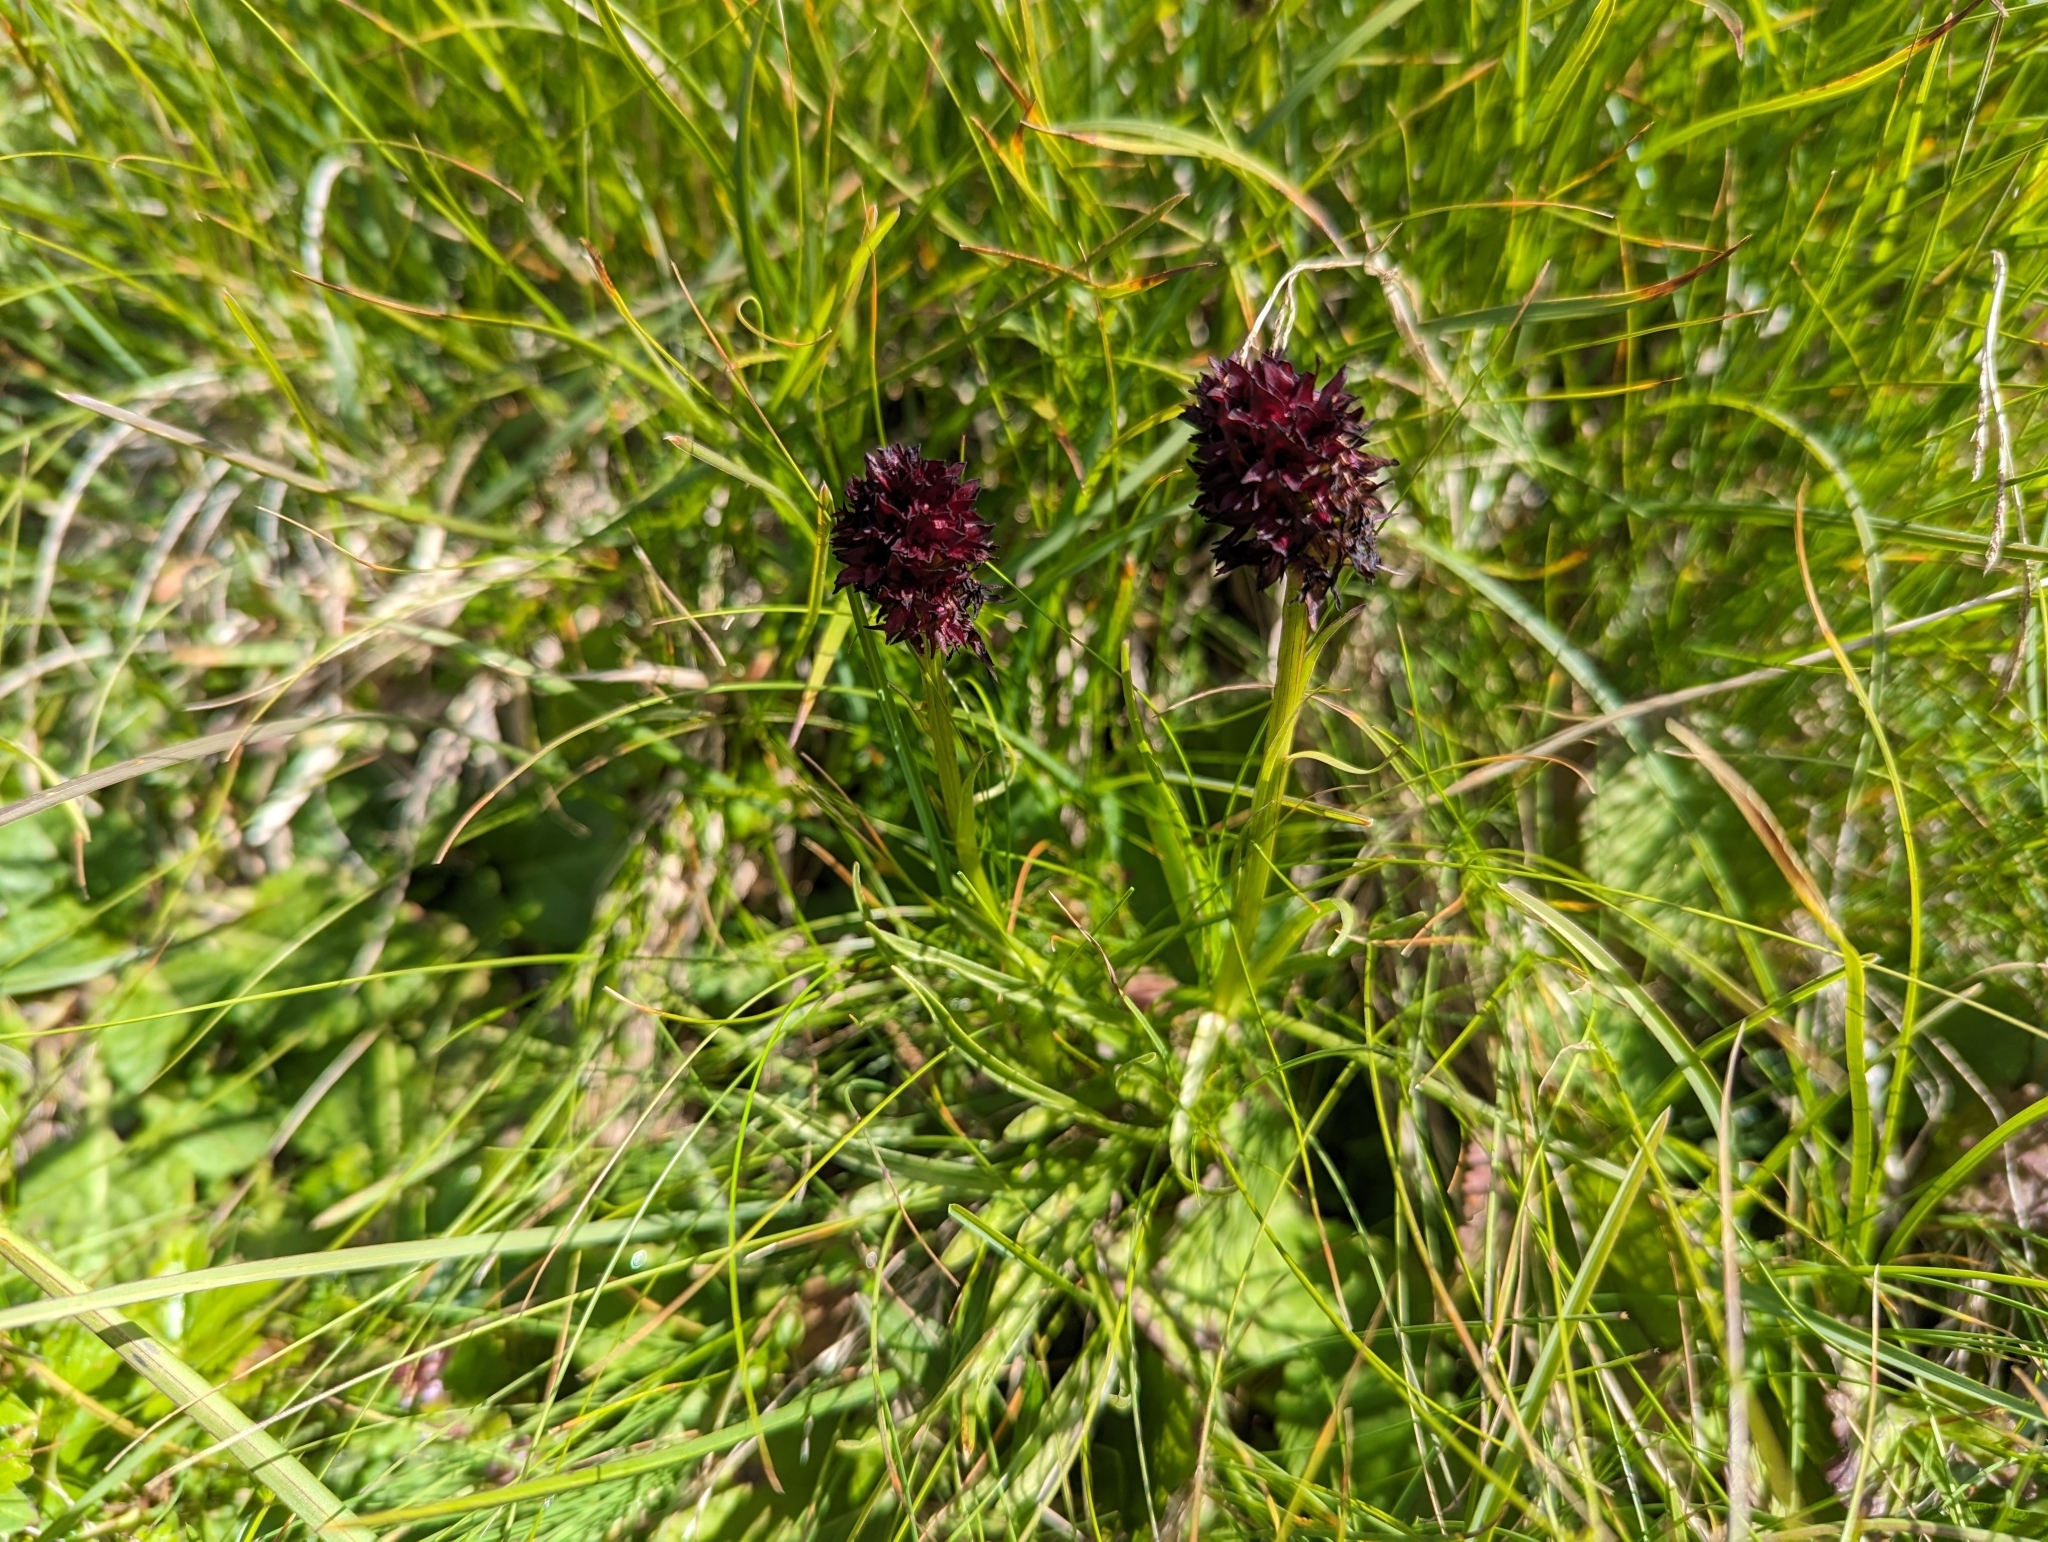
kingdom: Plantae
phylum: Tracheophyta
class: Liliopsida
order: Asparagales
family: Orchidaceae
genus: Gymnadenia
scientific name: Gymnadenia rhellicani
